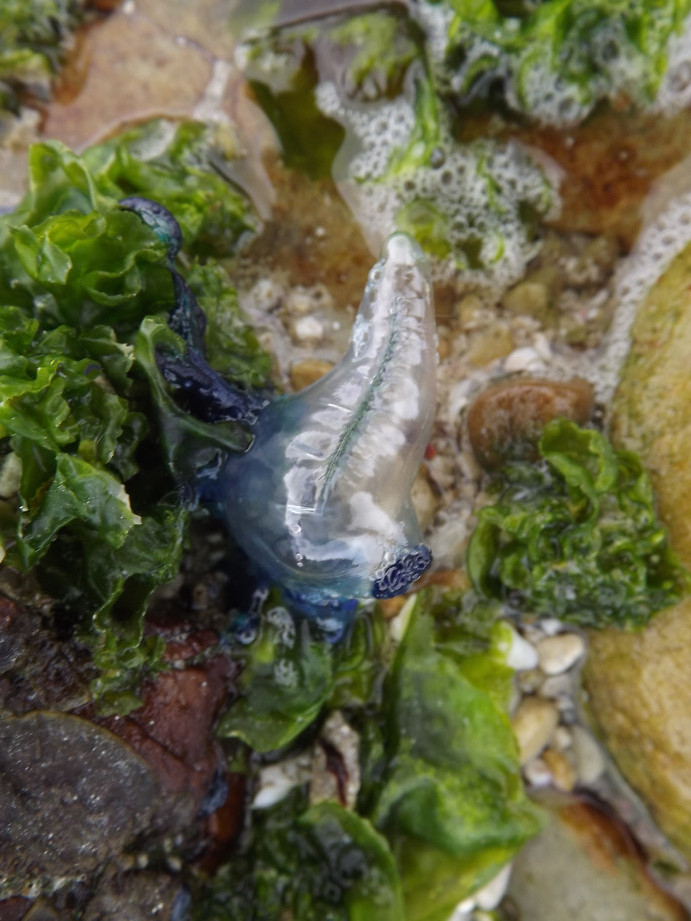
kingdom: Animalia
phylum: Cnidaria
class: Hydrozoa
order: Siphonophorae
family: Physaliidae
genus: Physalia
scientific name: Physalia physalis
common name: Portuguese man-of-war
